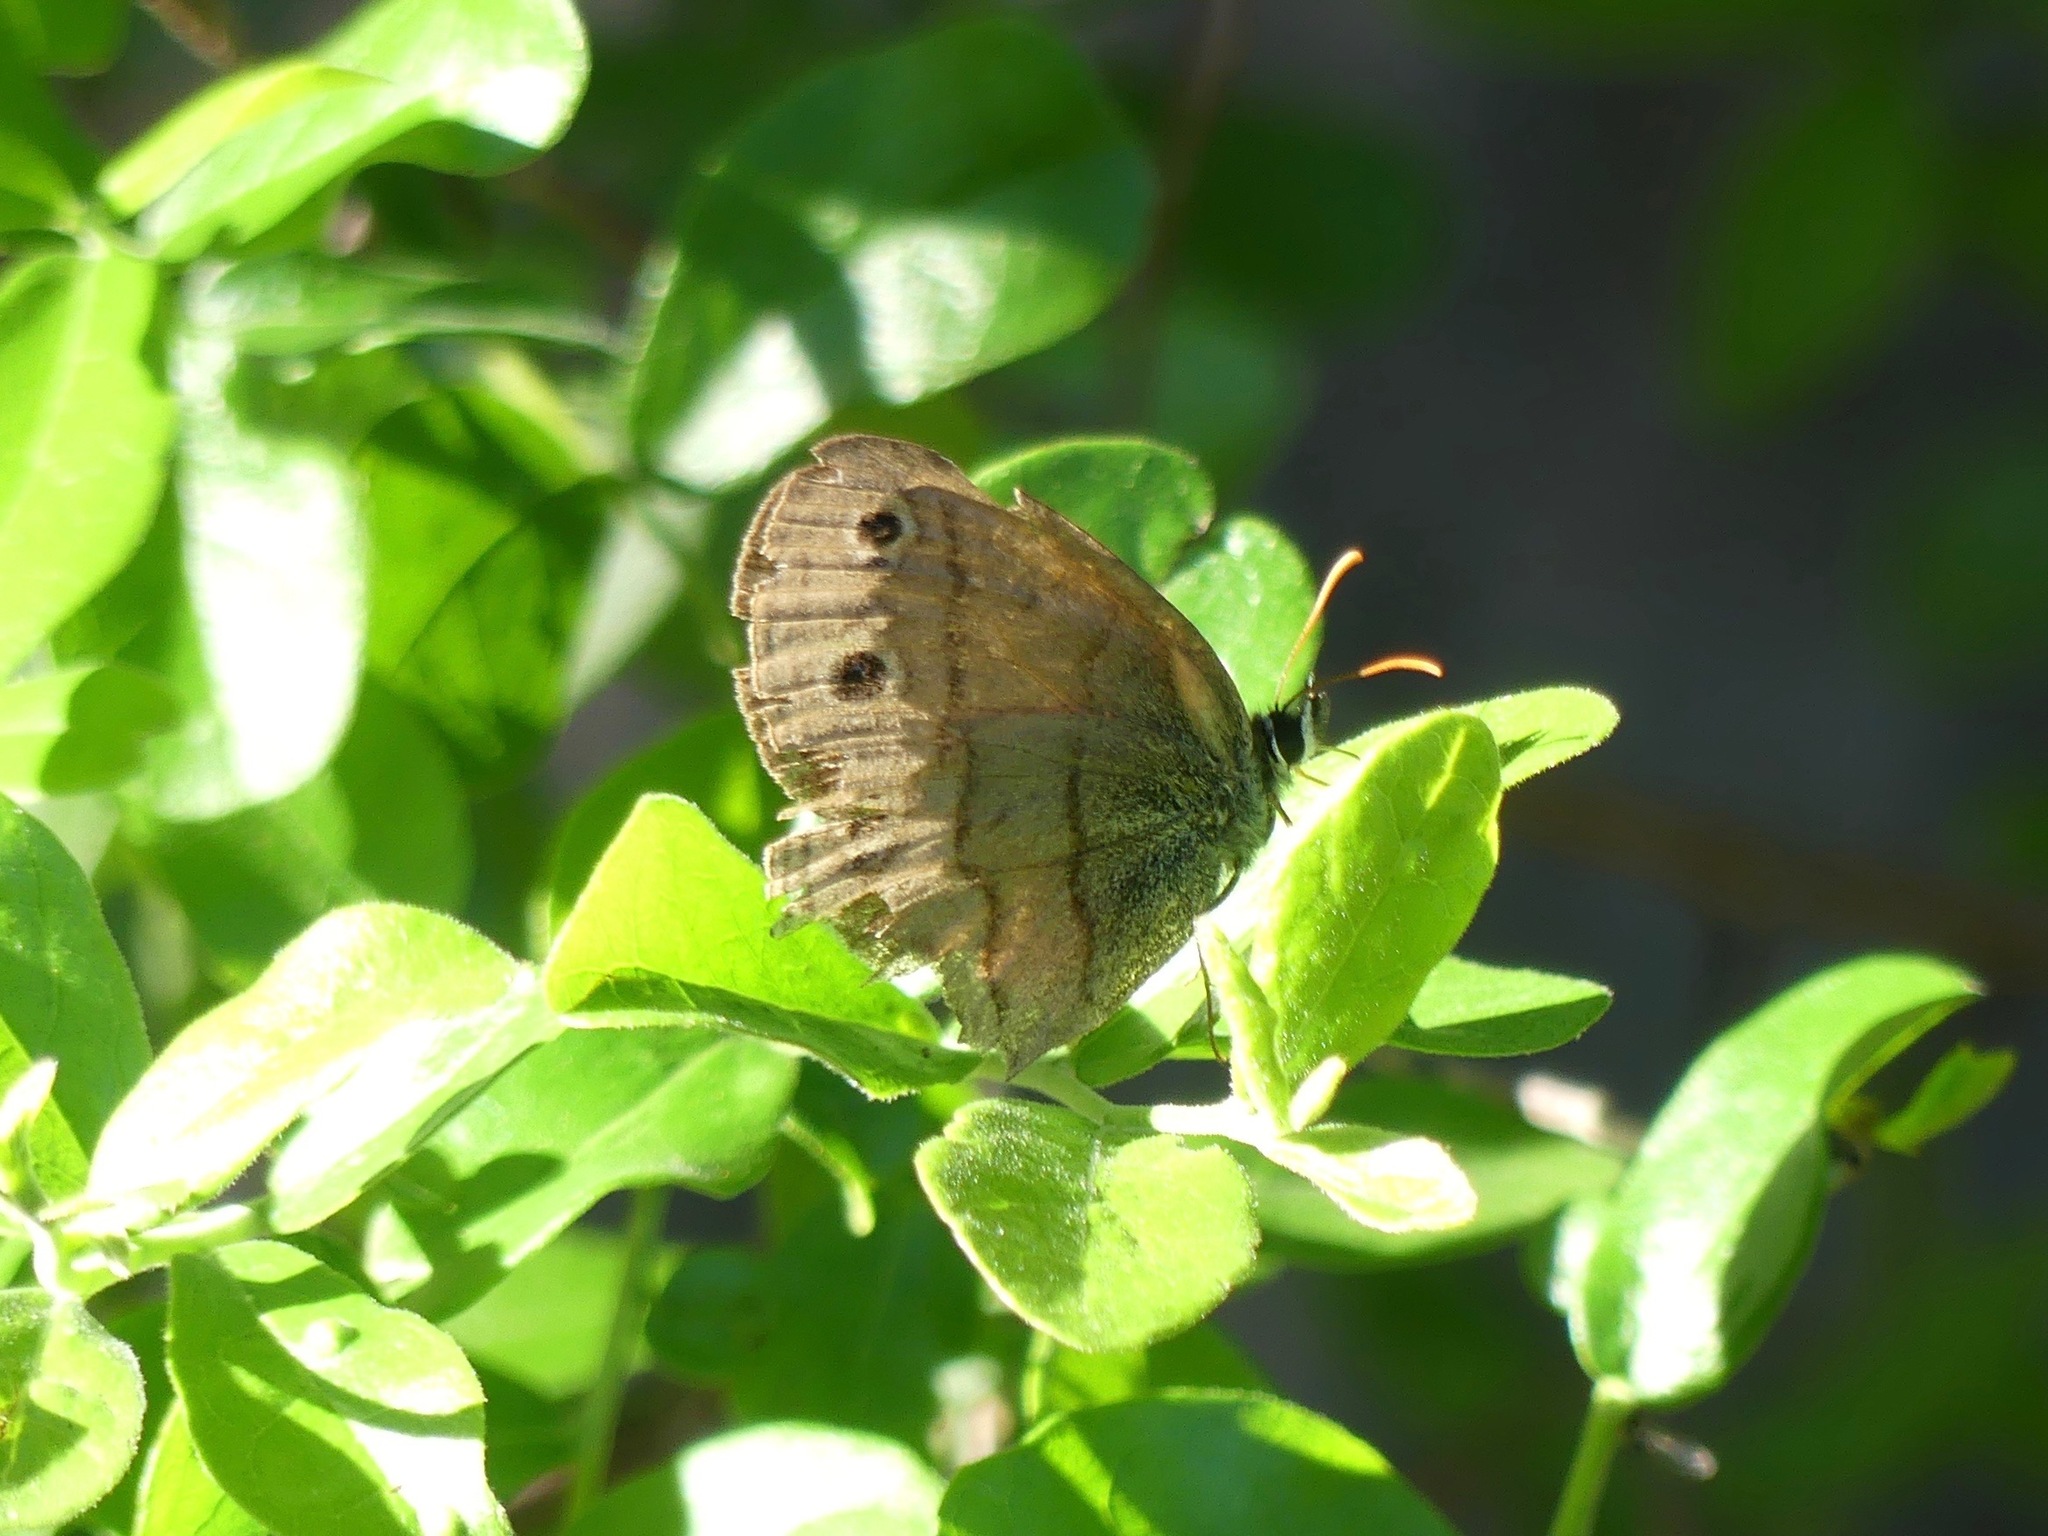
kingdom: Animalia
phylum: Arthropoda
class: Insecta
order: Lepidoptera
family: Nymphalidae
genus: Euptychia
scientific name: Euptychia cymela
